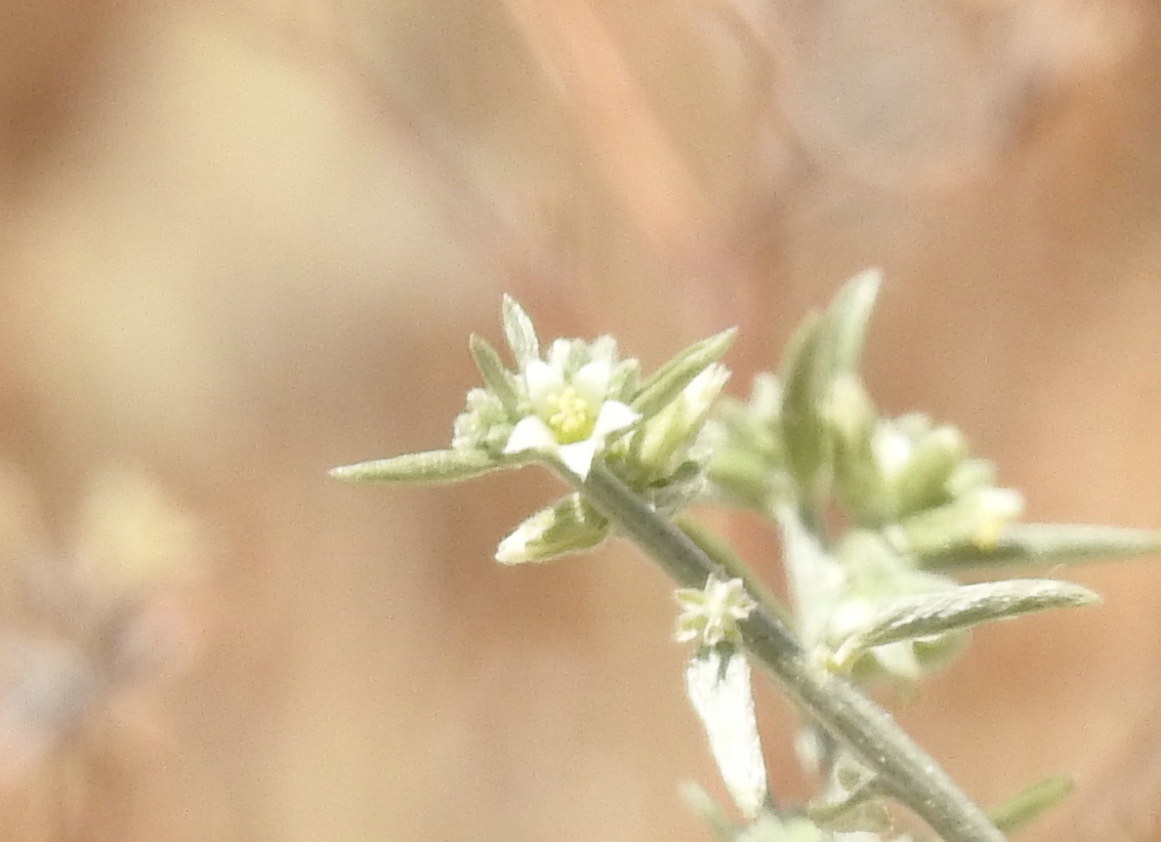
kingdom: Plantae
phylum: Tracheophyta
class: Magnoliopsida
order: Malpighiales
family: Euphorbiaceae
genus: Ditaxis
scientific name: Ditaxis lanceolata
